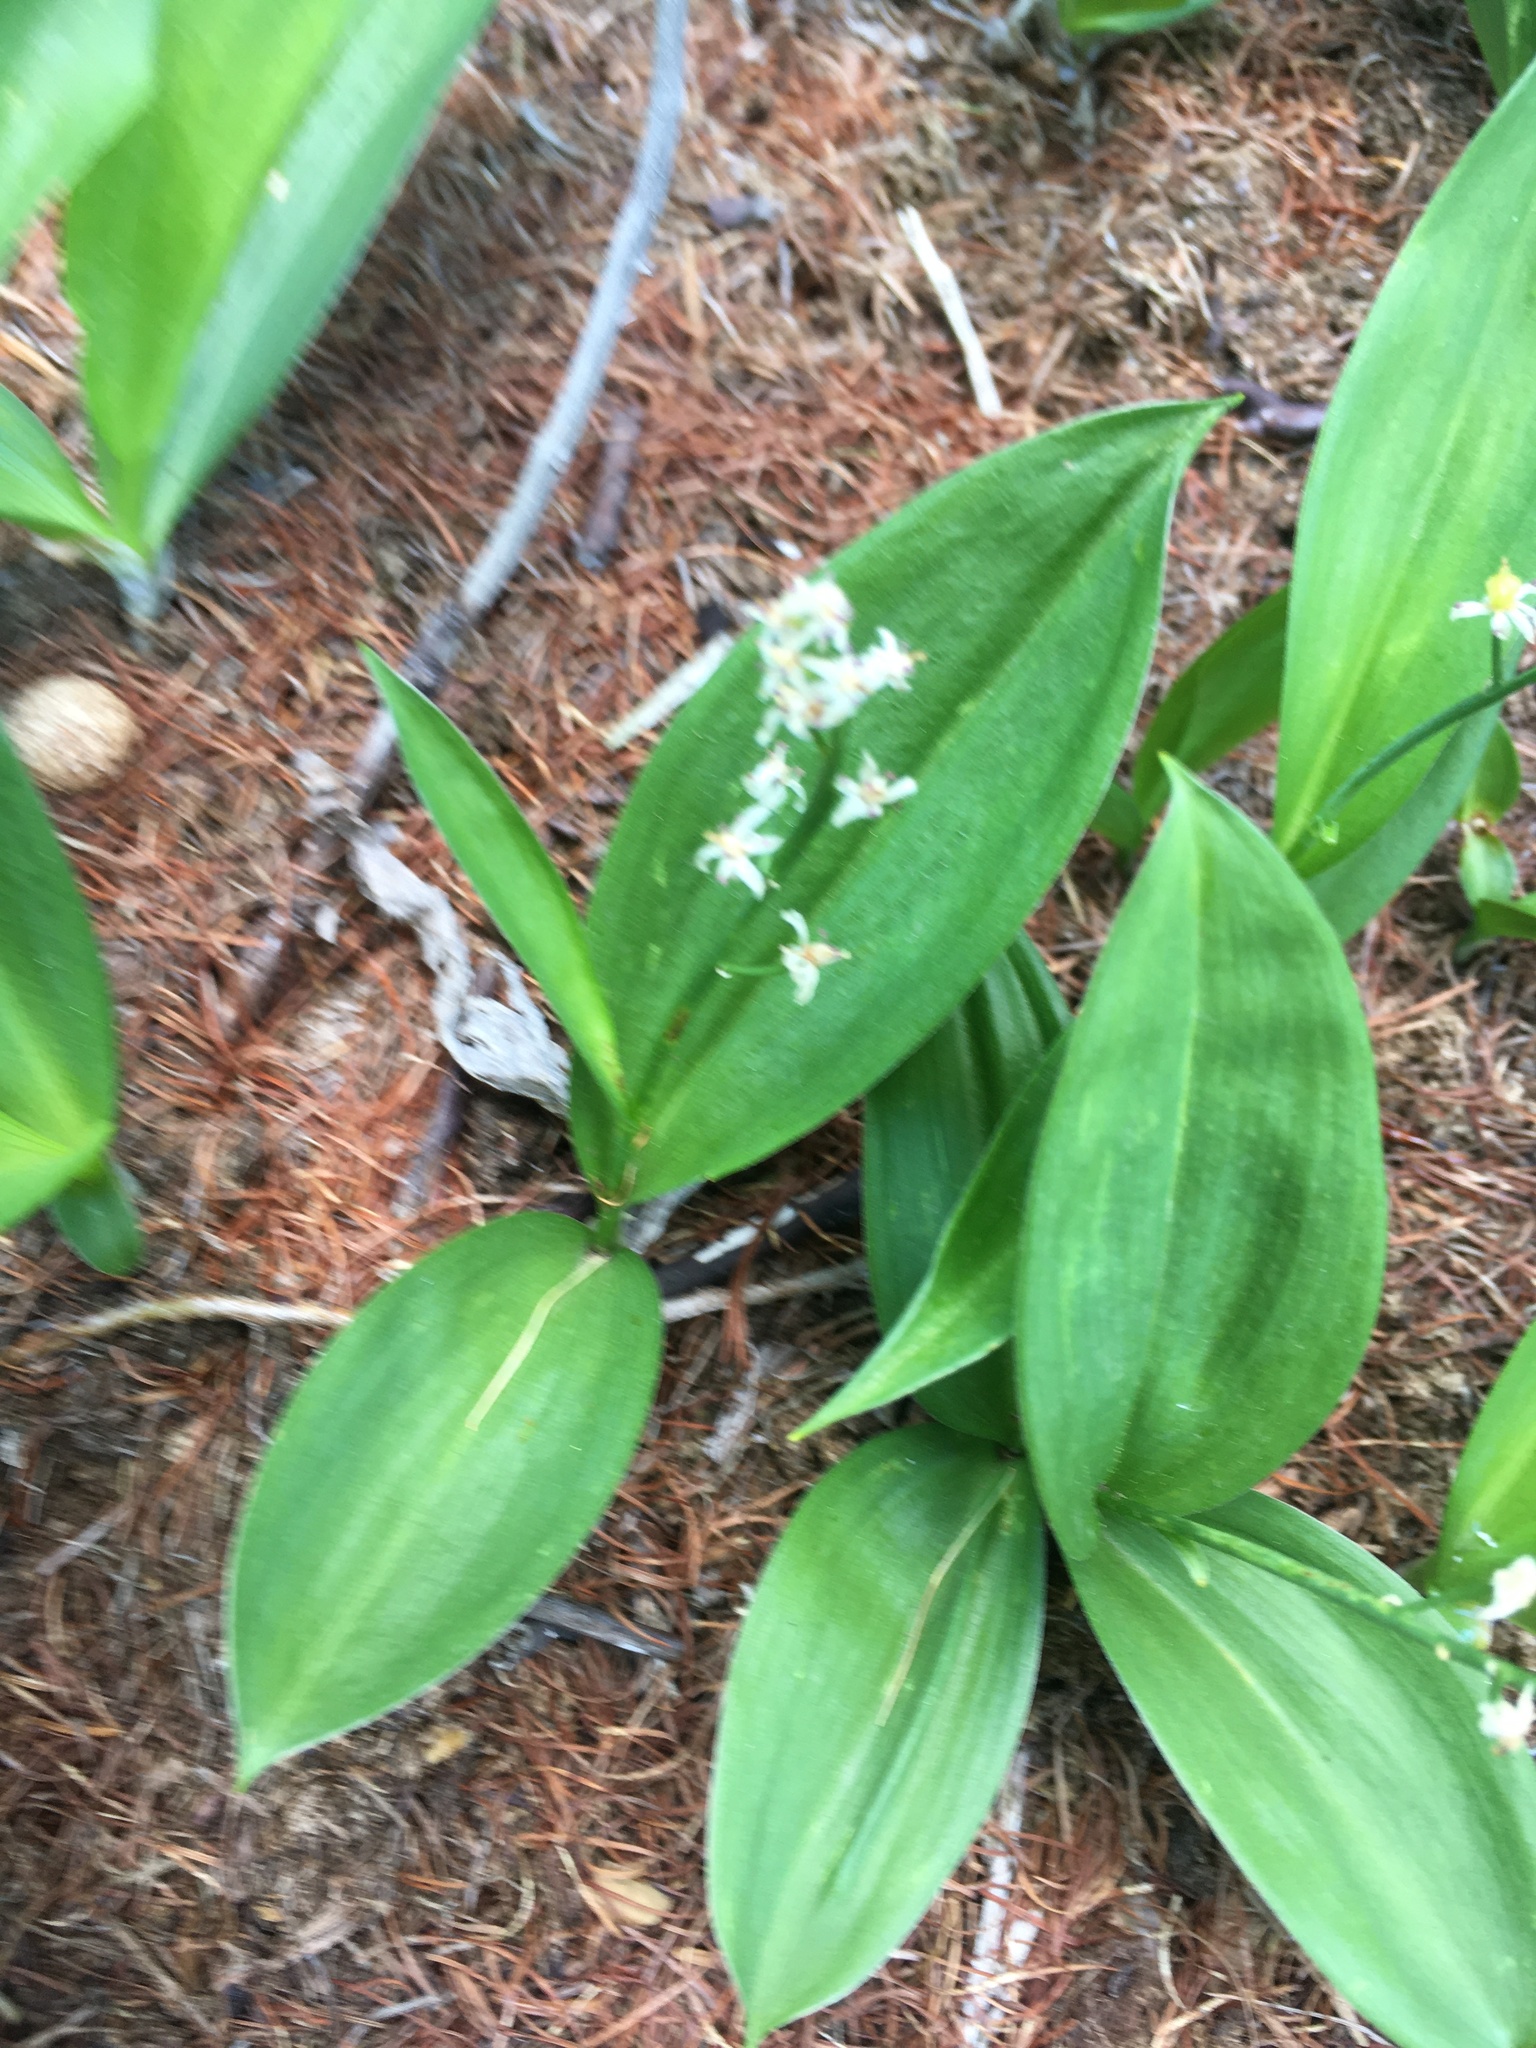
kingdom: Plantae
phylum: Tracheophyta
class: Liliopsida
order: Asparagales
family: Asparagaceae
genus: Maianthemum
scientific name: Maianthemum trifolium
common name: Swamp false solomon's seal
